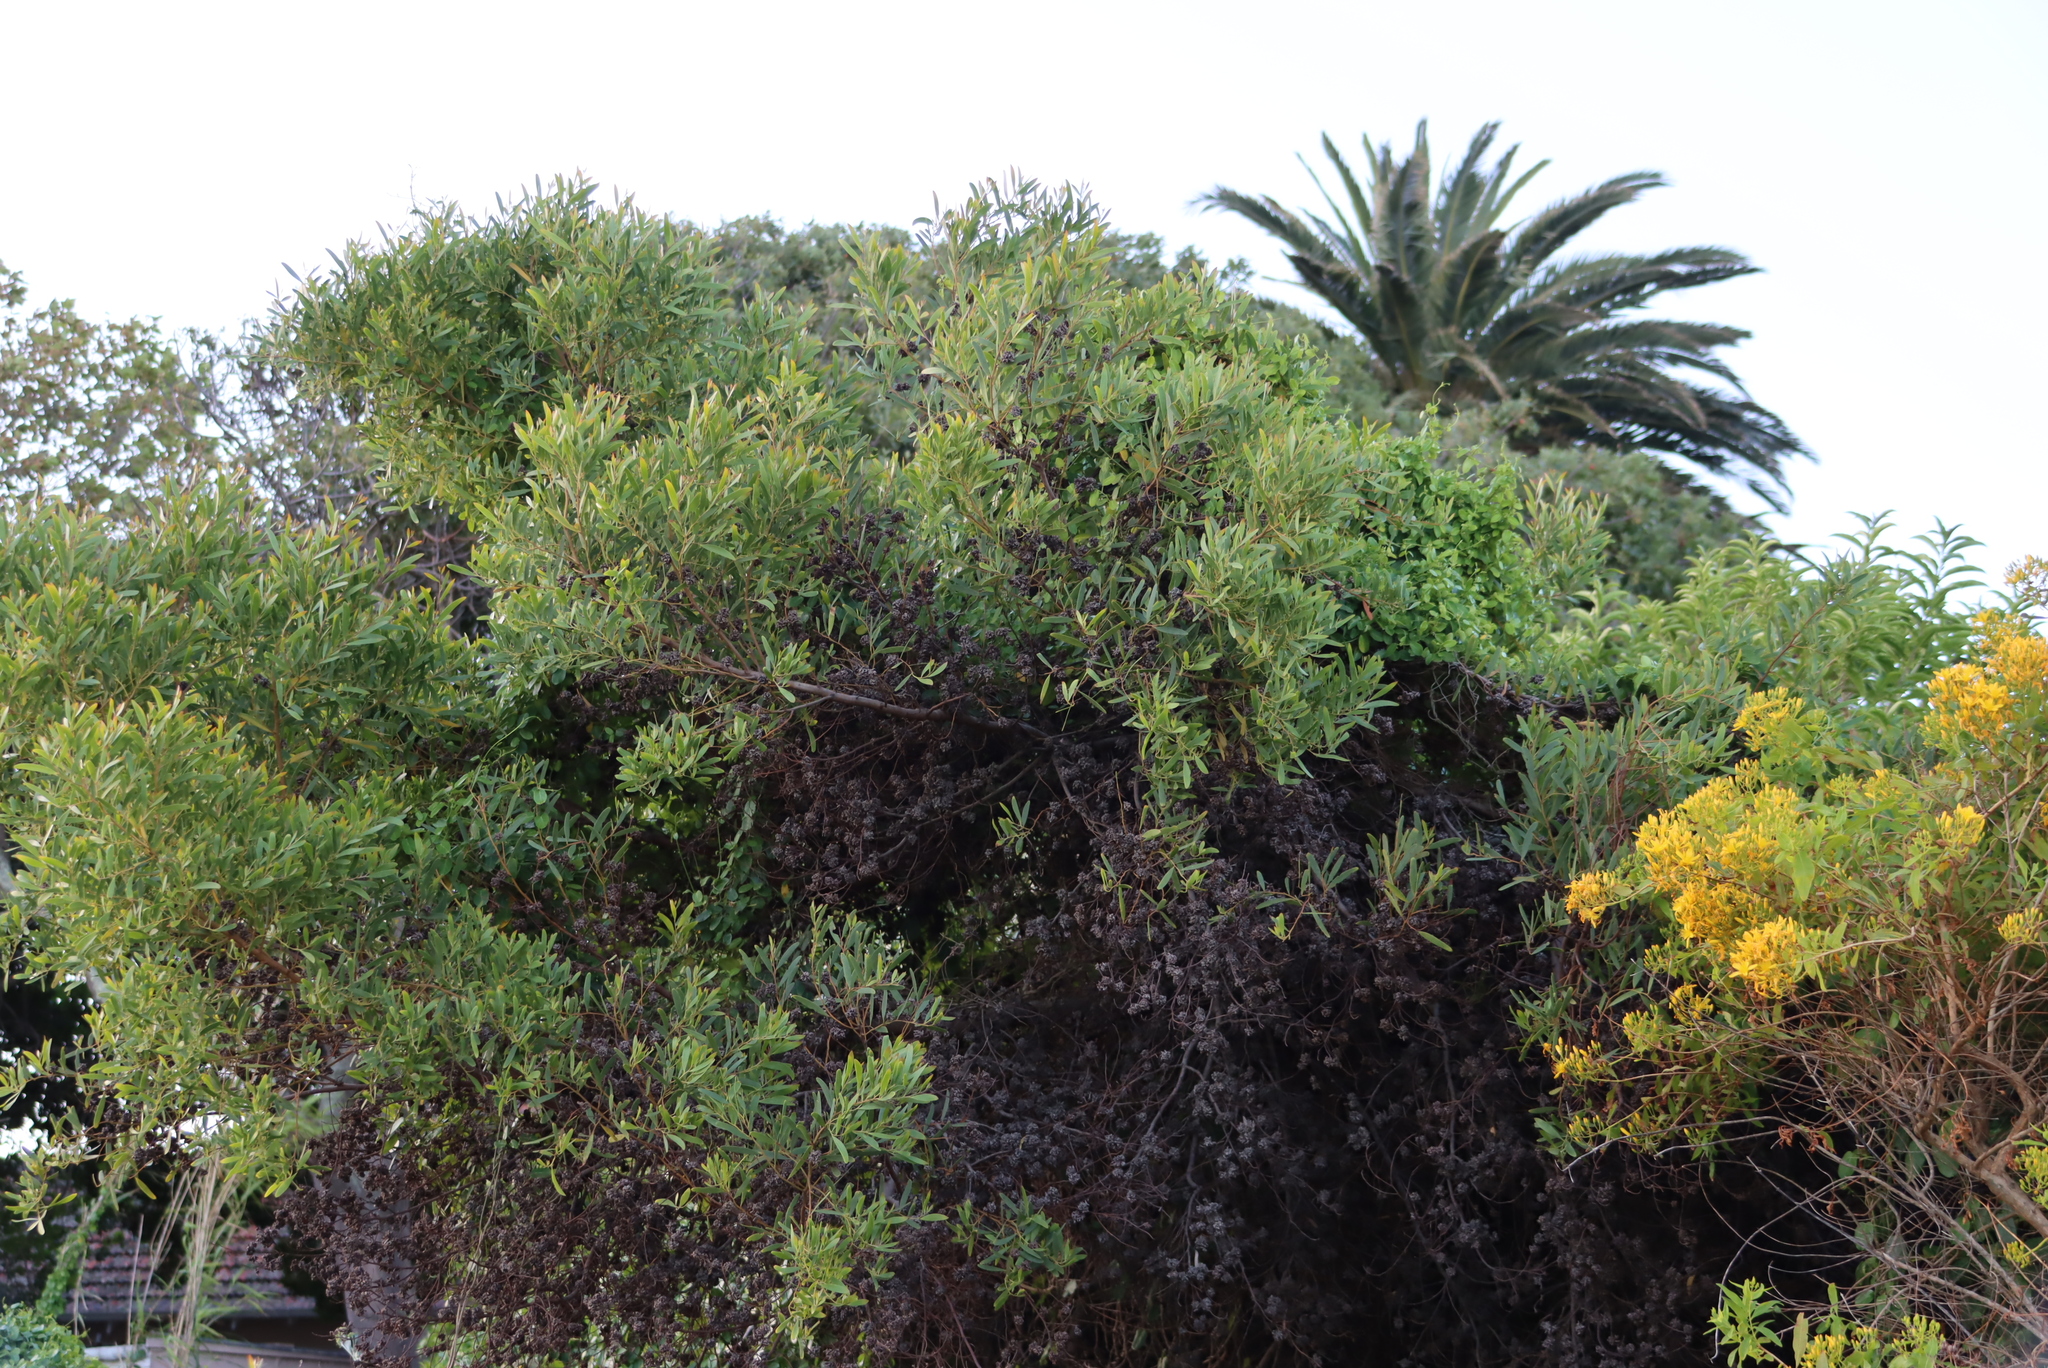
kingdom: Plantae
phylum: Tracheophyta
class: Magnoliopsida
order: Fabales
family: Fabaceae
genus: Acacia
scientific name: Acacia cyclops
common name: Coastal wattle
